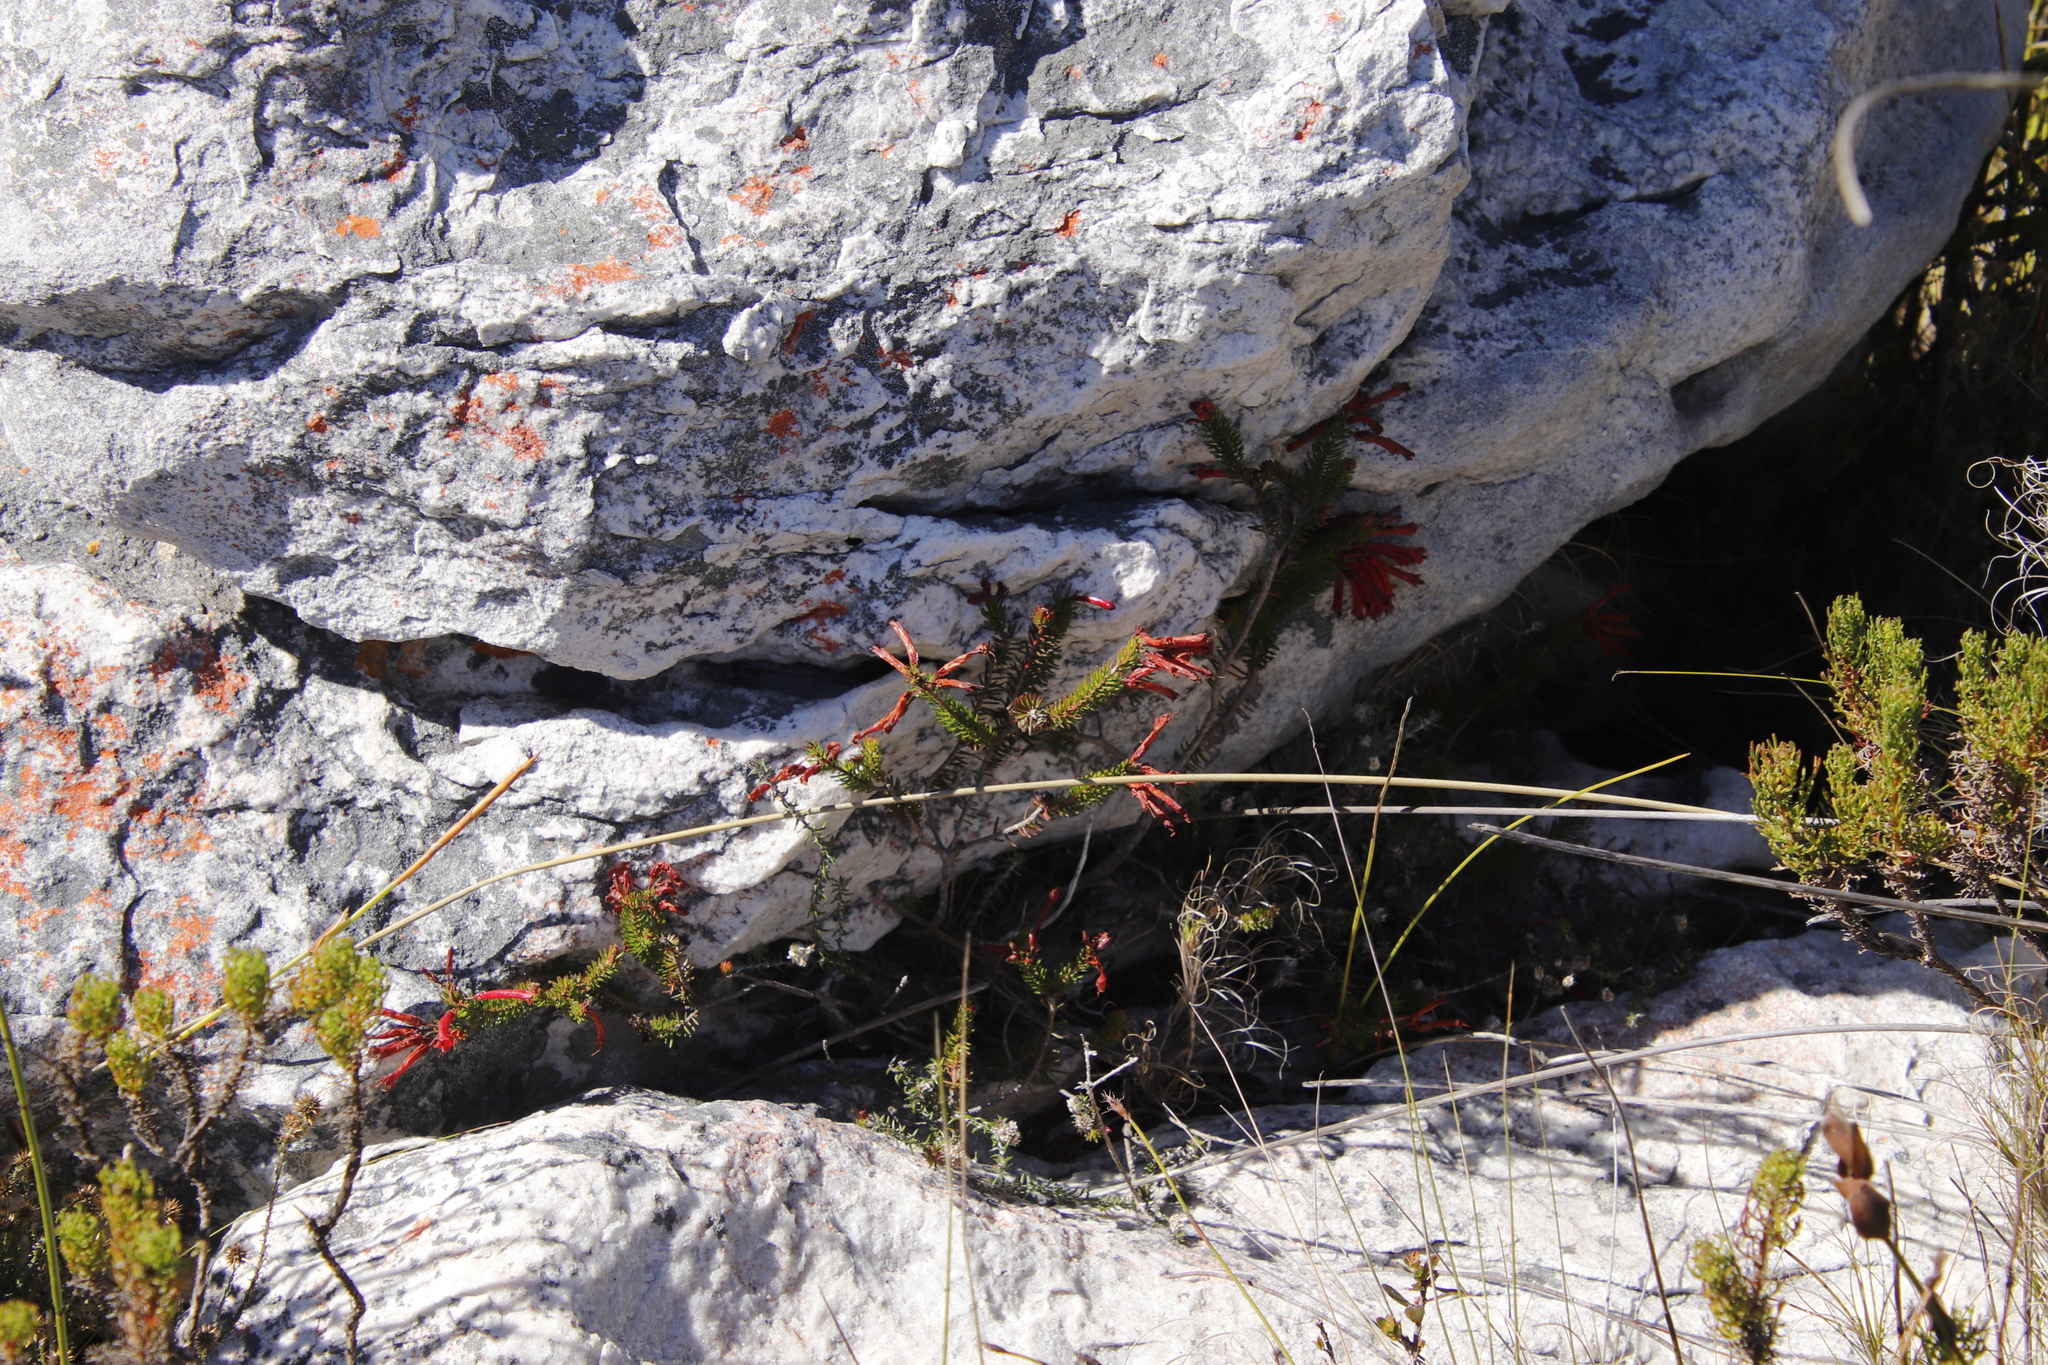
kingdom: Plantae
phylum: Tracheophyta
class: Magnoliopsida
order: Ericales
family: Ericaceae
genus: Erica
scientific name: Erica nevillei
